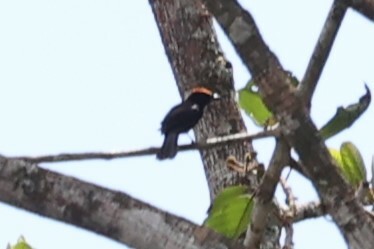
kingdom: Animalia
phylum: Chordata
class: Aves
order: Passeriformes
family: Thraupidae
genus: Loriotus
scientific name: Loriotus cristatus
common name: Flame-crested tanager
